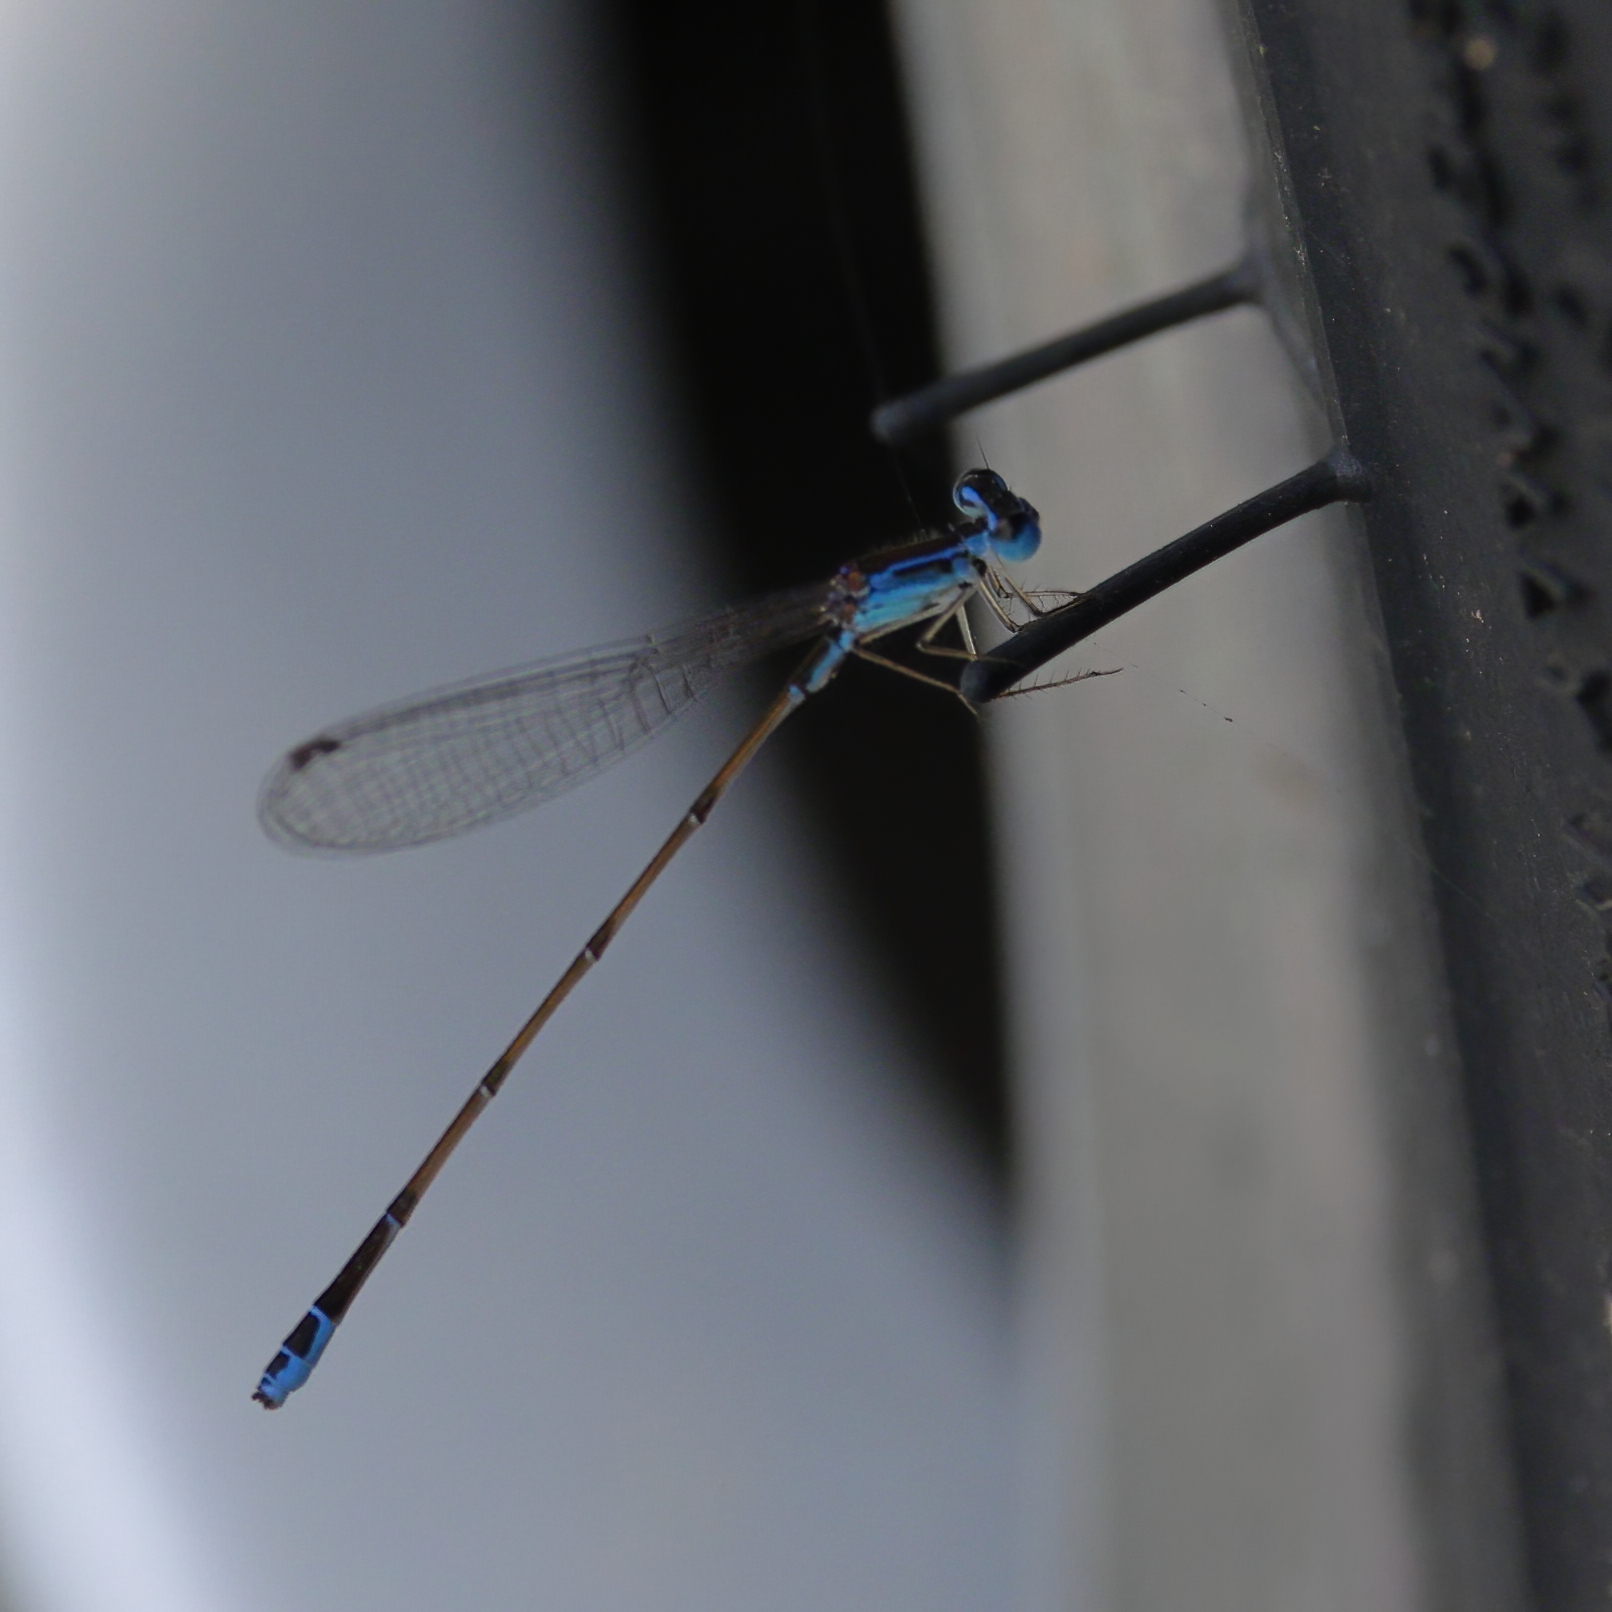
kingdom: Animalia
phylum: Arthropoda
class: Insecta
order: Odonata
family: Coenagrionidae
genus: Nehalennia
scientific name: Nehalennia pallidula
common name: Everglades sprite
